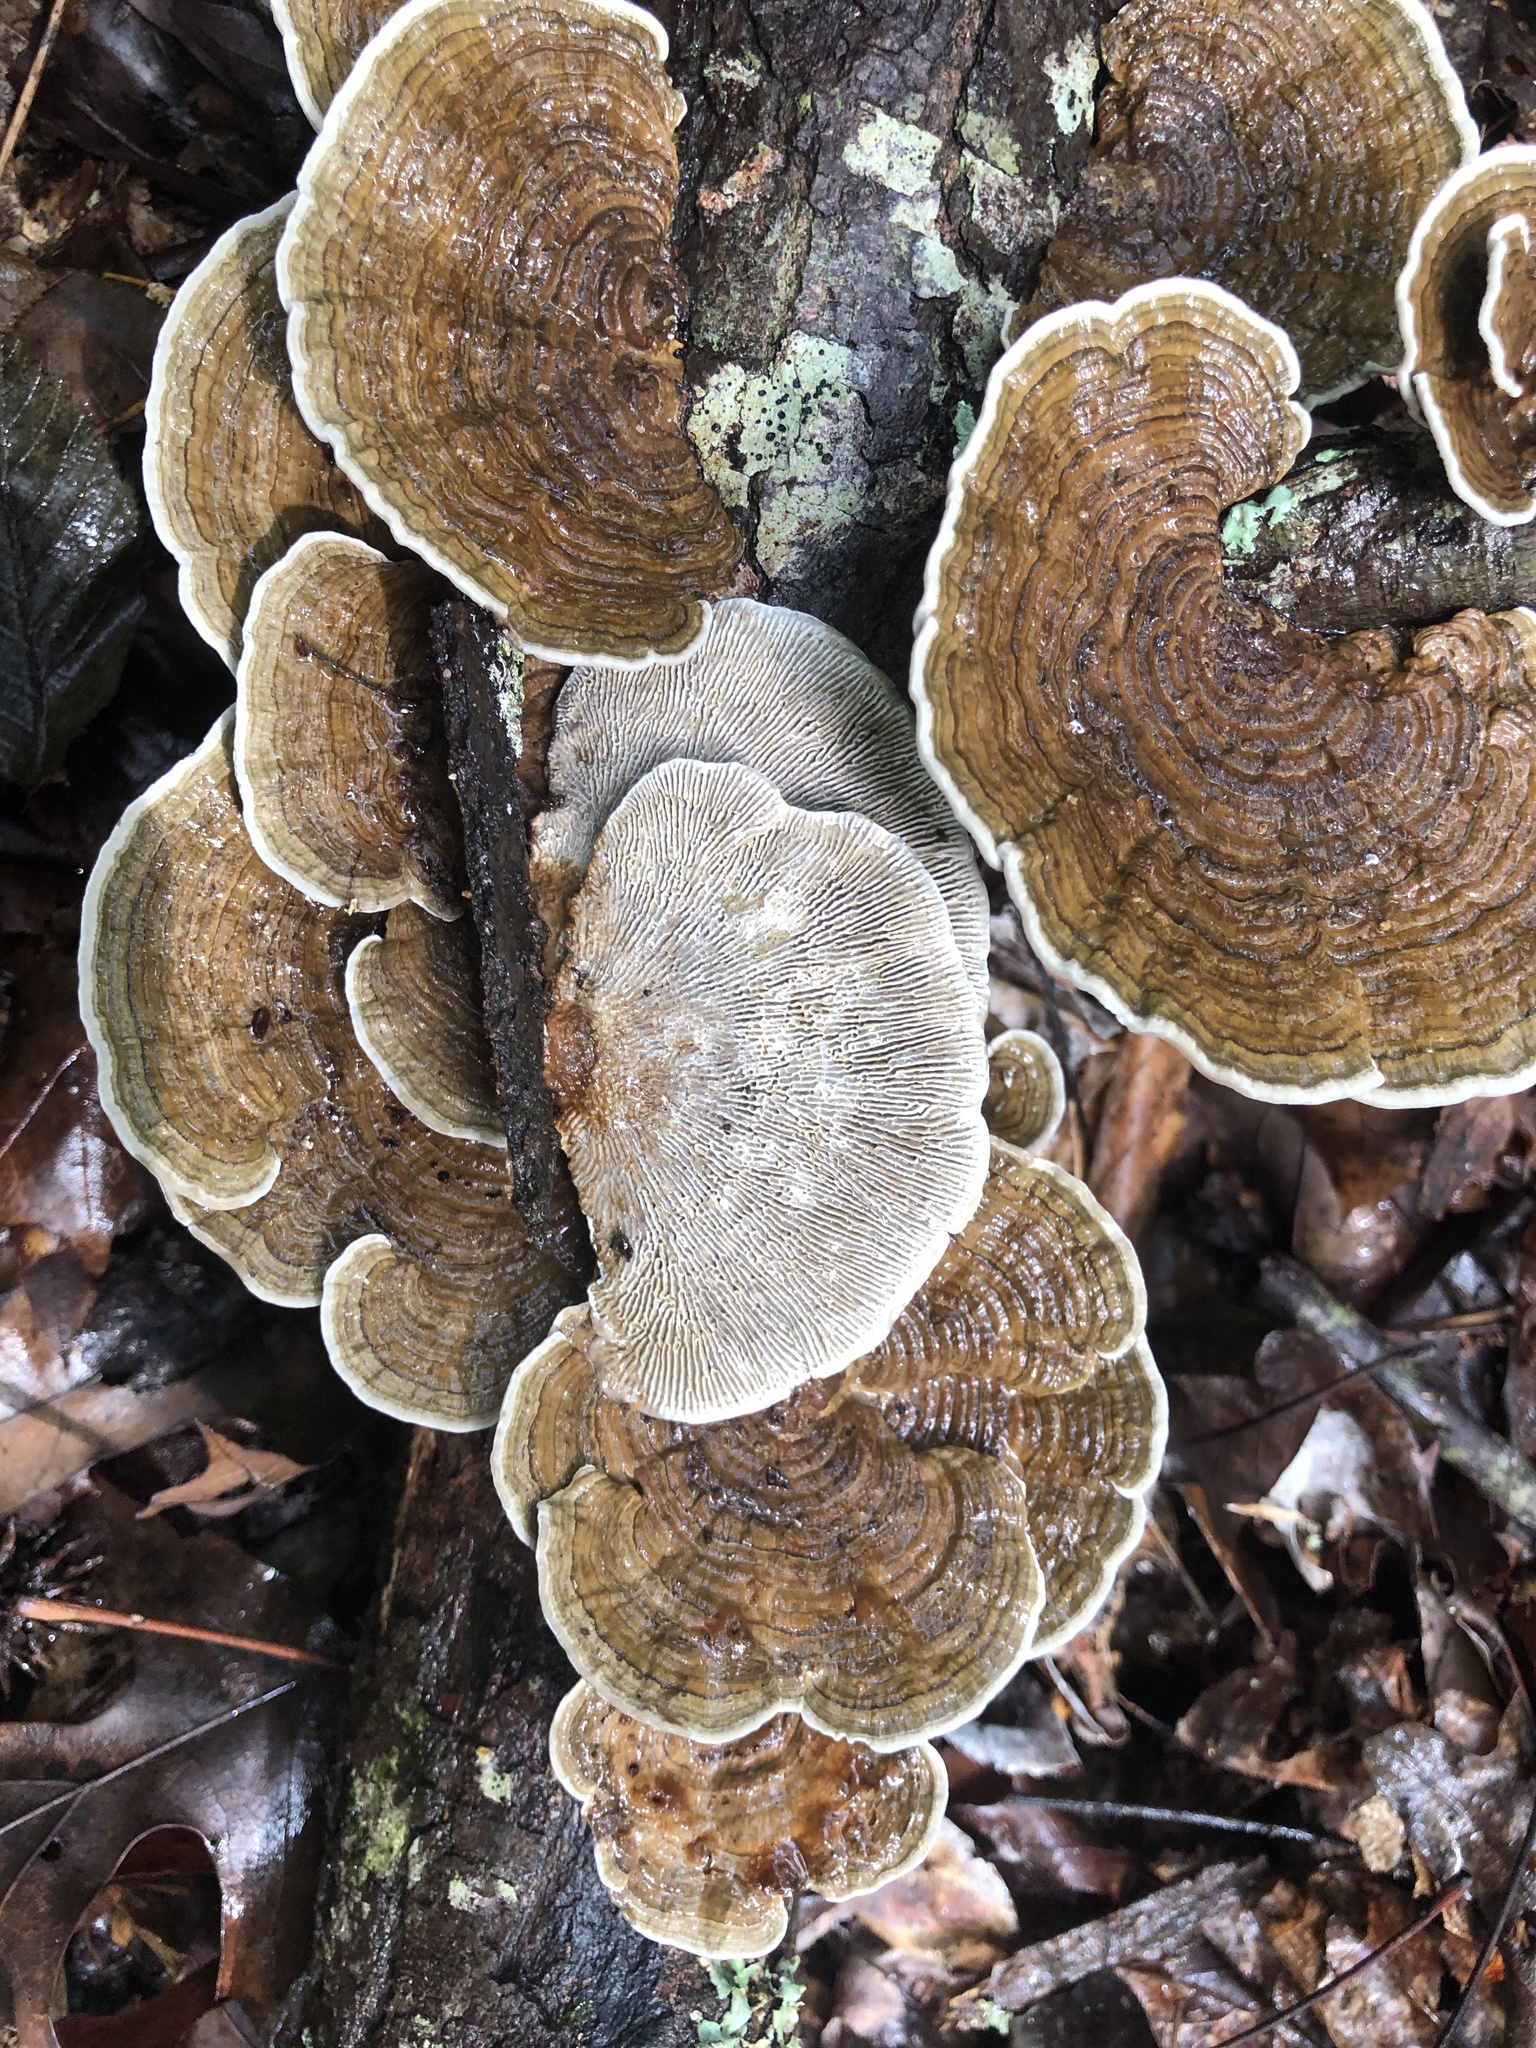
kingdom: Fungi
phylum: Basidiomycota
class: Agaricomycetes
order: Polyporales
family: Polyporaceae
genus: Daedaleopsis
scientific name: Daedaleopsis confragosa
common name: Blushing bracket
